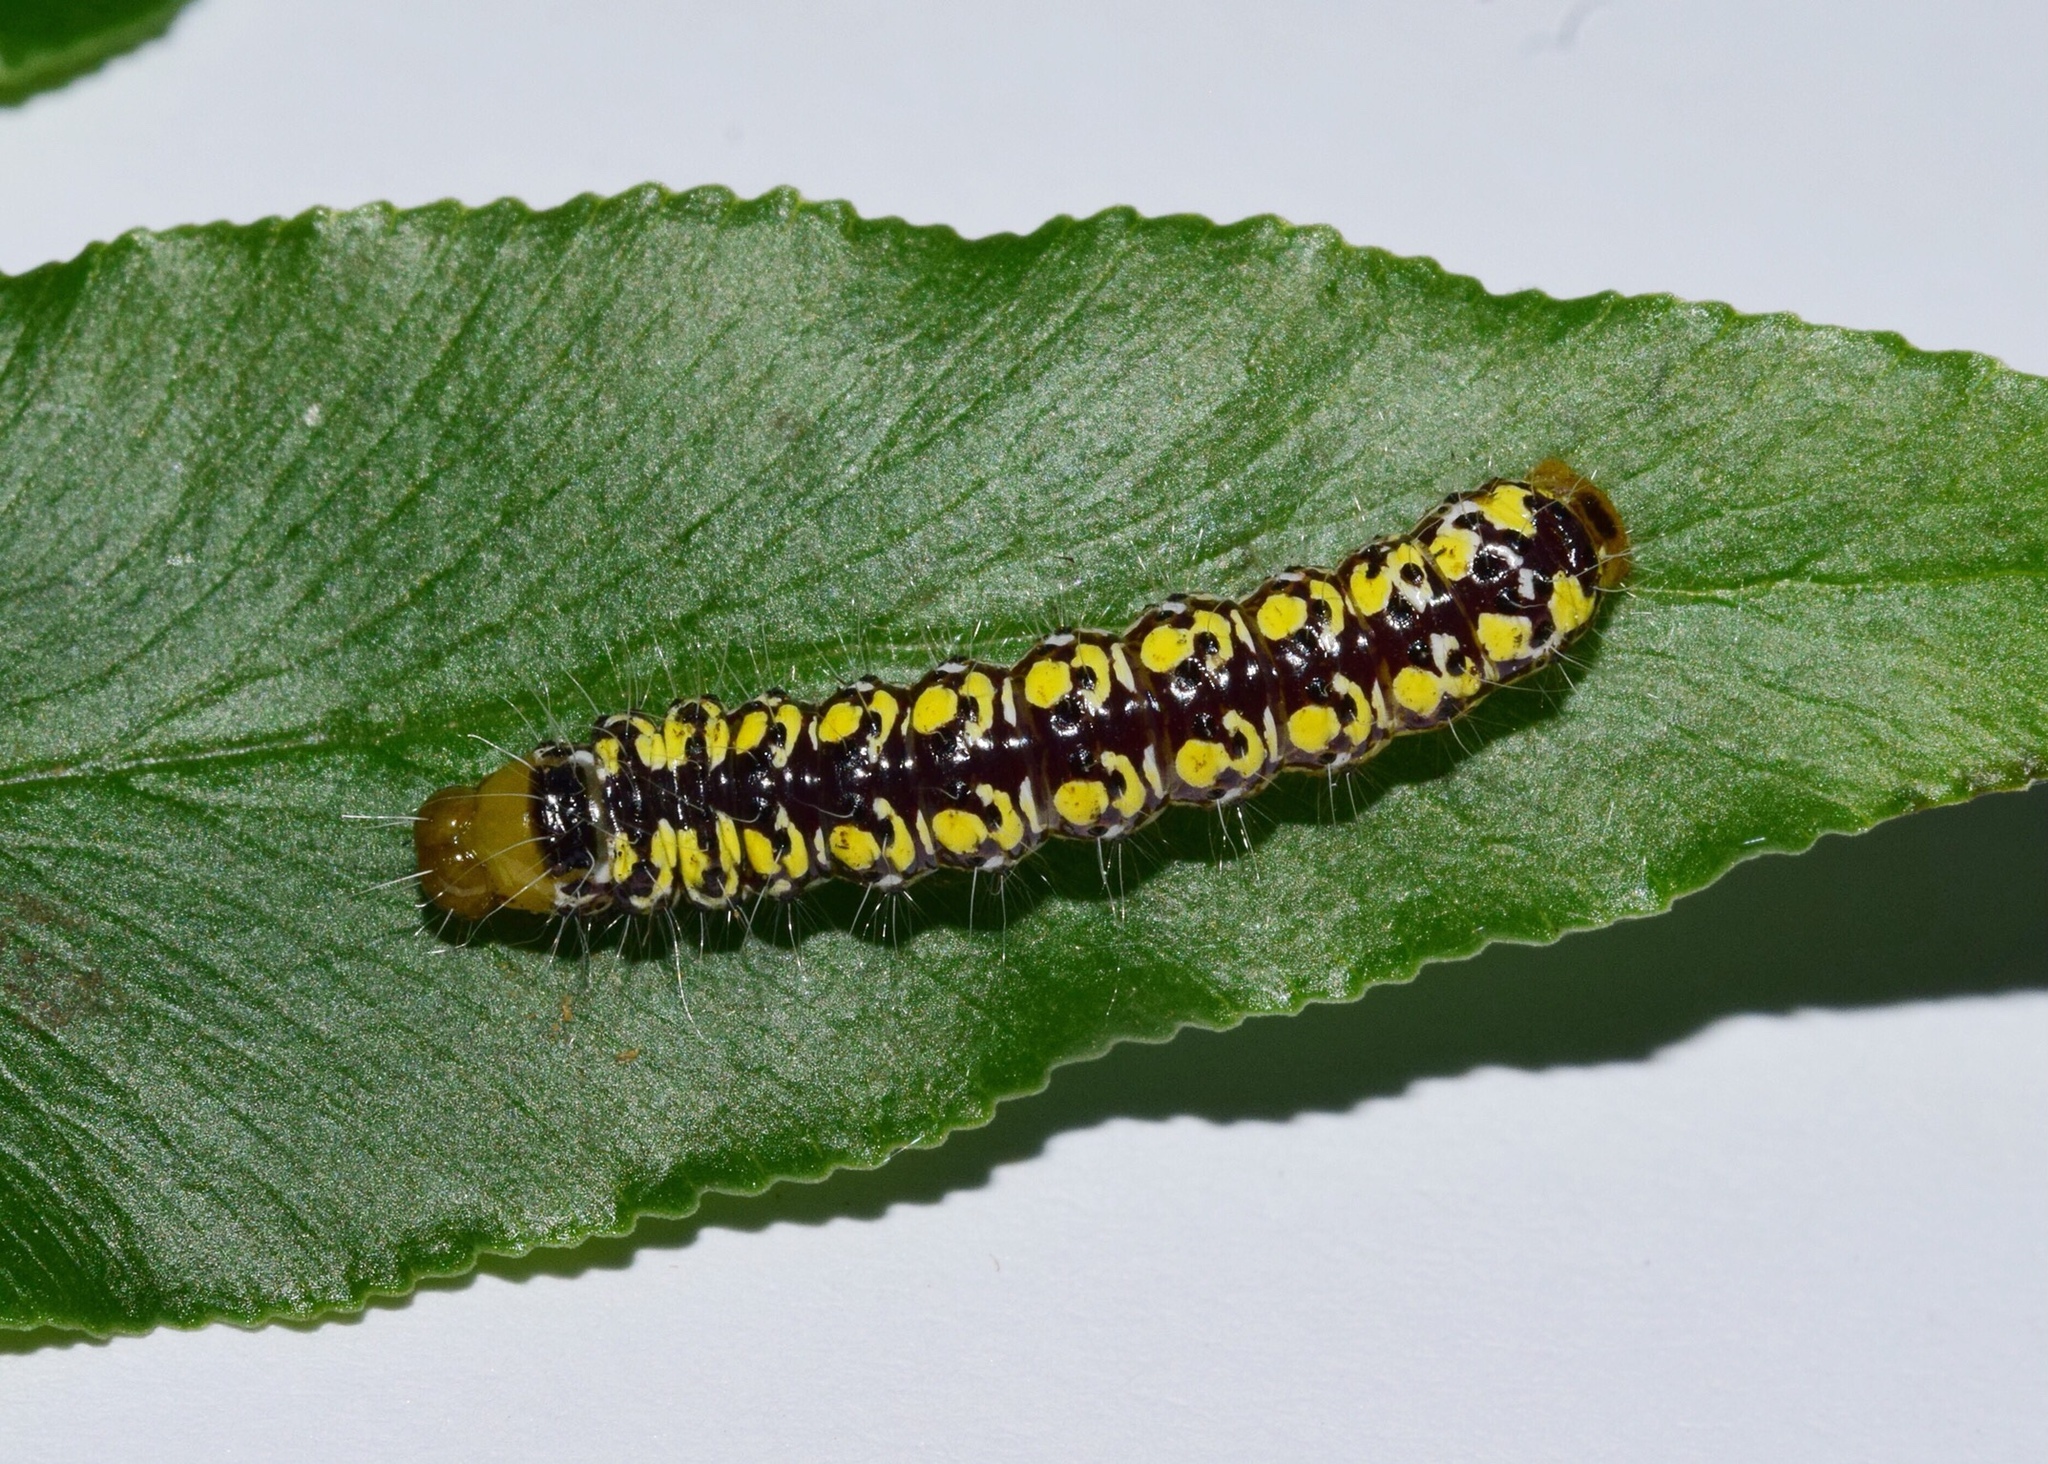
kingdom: Animalia
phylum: Arthropoda
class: Insecta
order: Lepidoptera
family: Noctuidae
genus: Nyodes
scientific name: Nyodes acatharta
